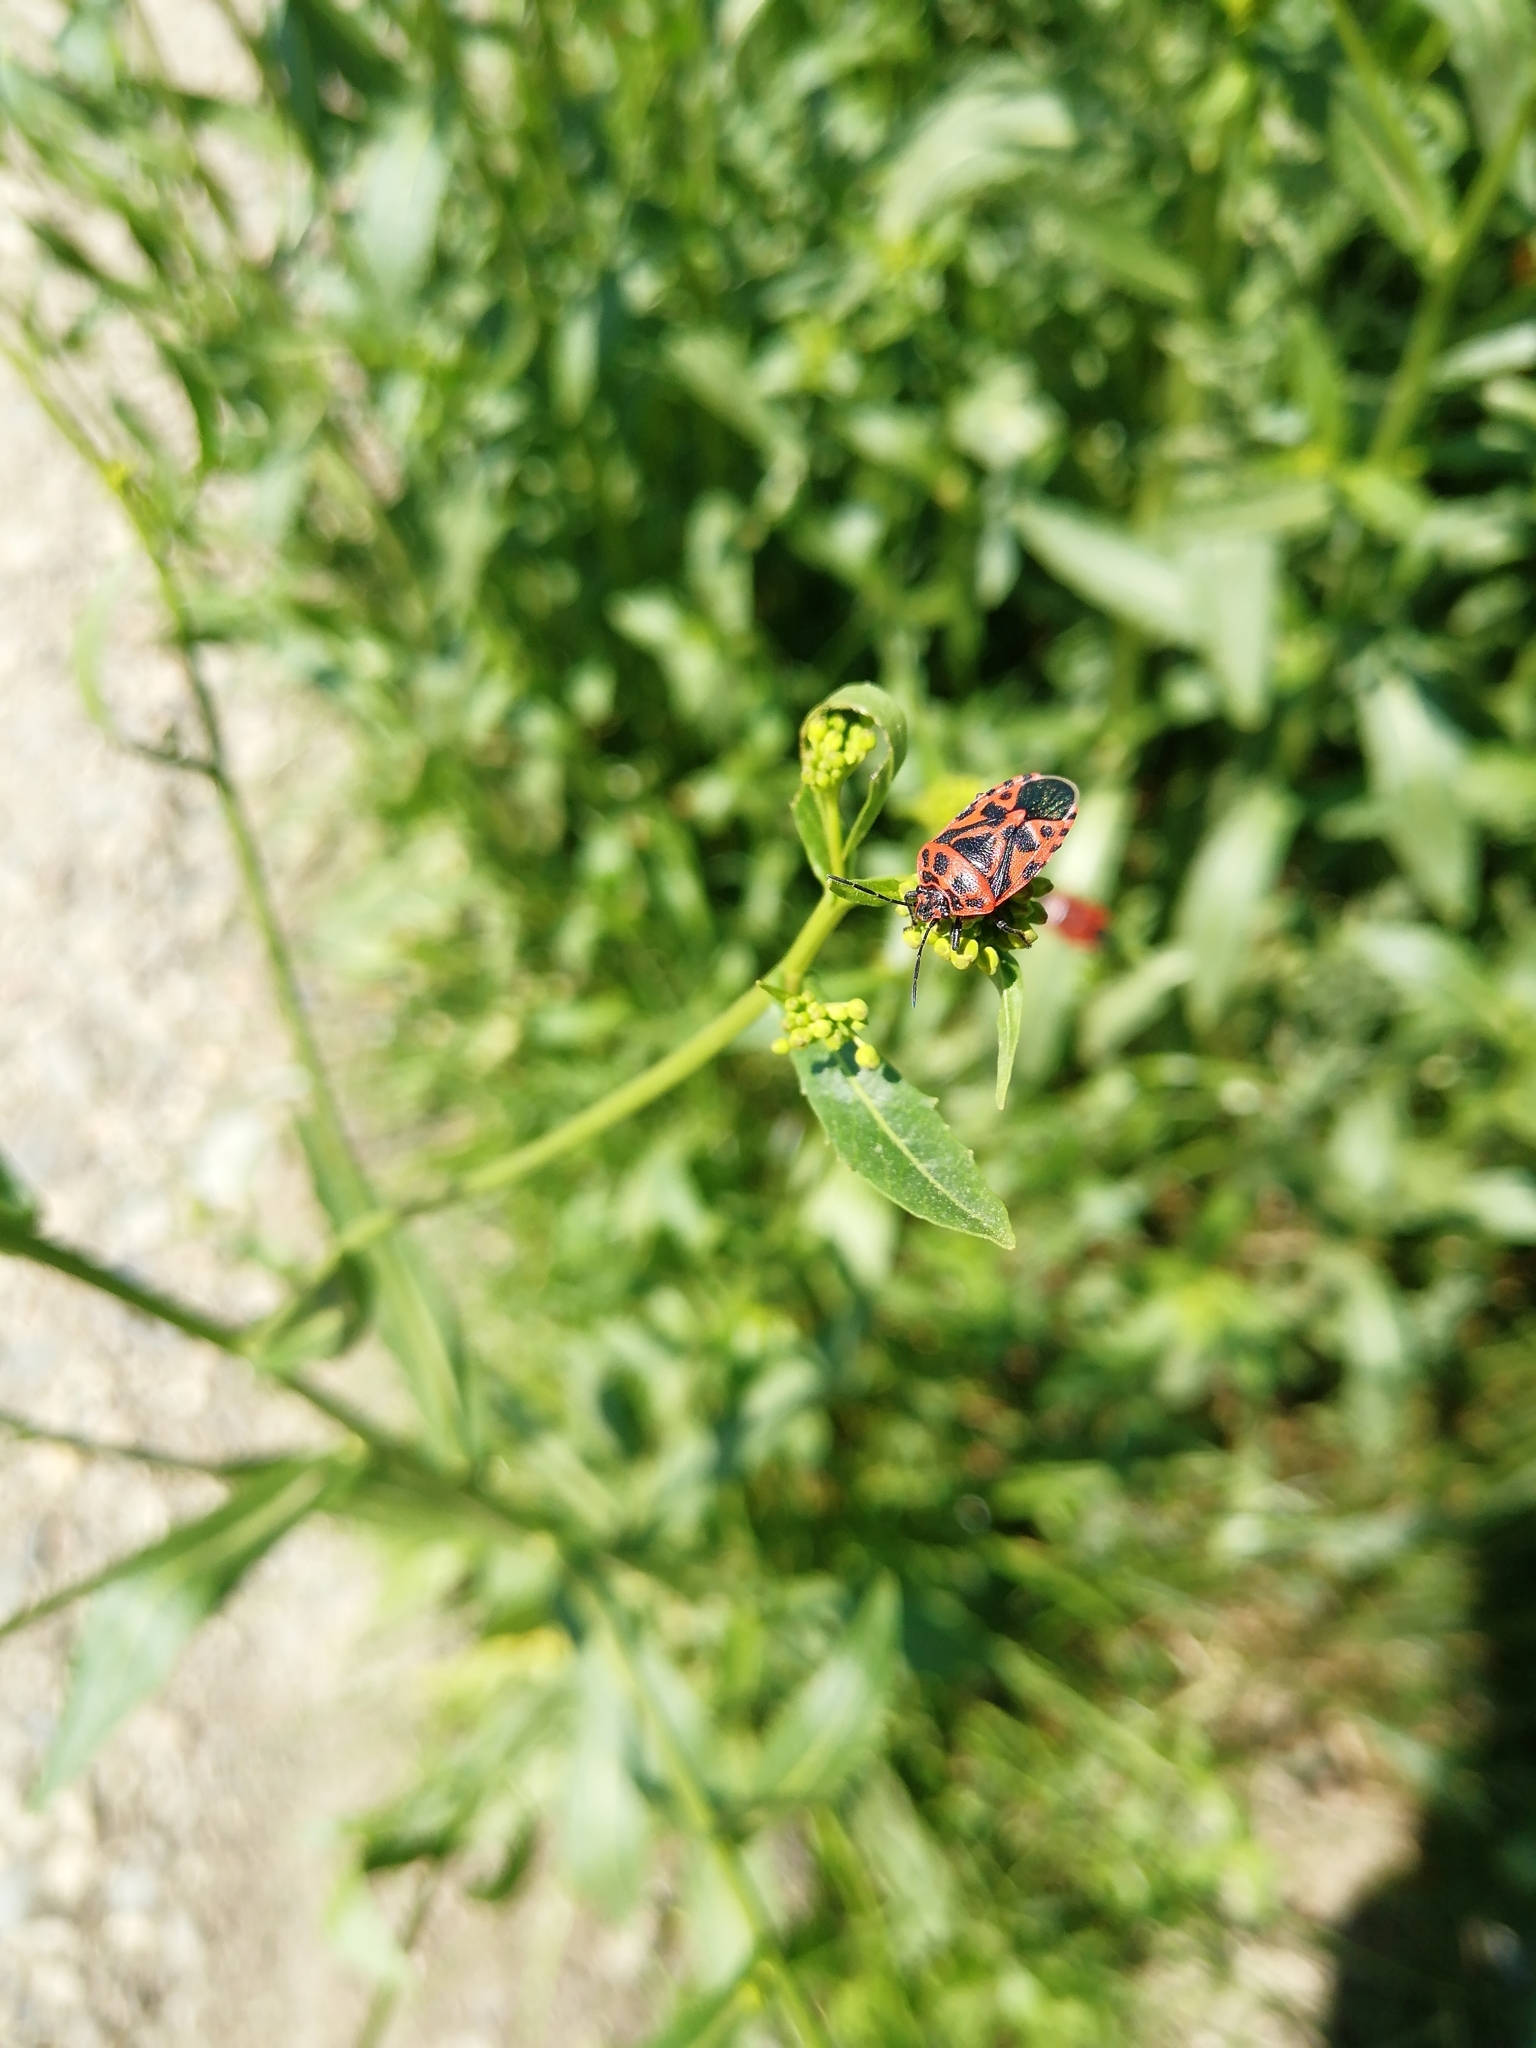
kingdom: Animalia
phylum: Arthropoda
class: Insecta
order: Hemiptera
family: Pentatomidae
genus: Eurydema
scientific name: Eurydema ventralis
